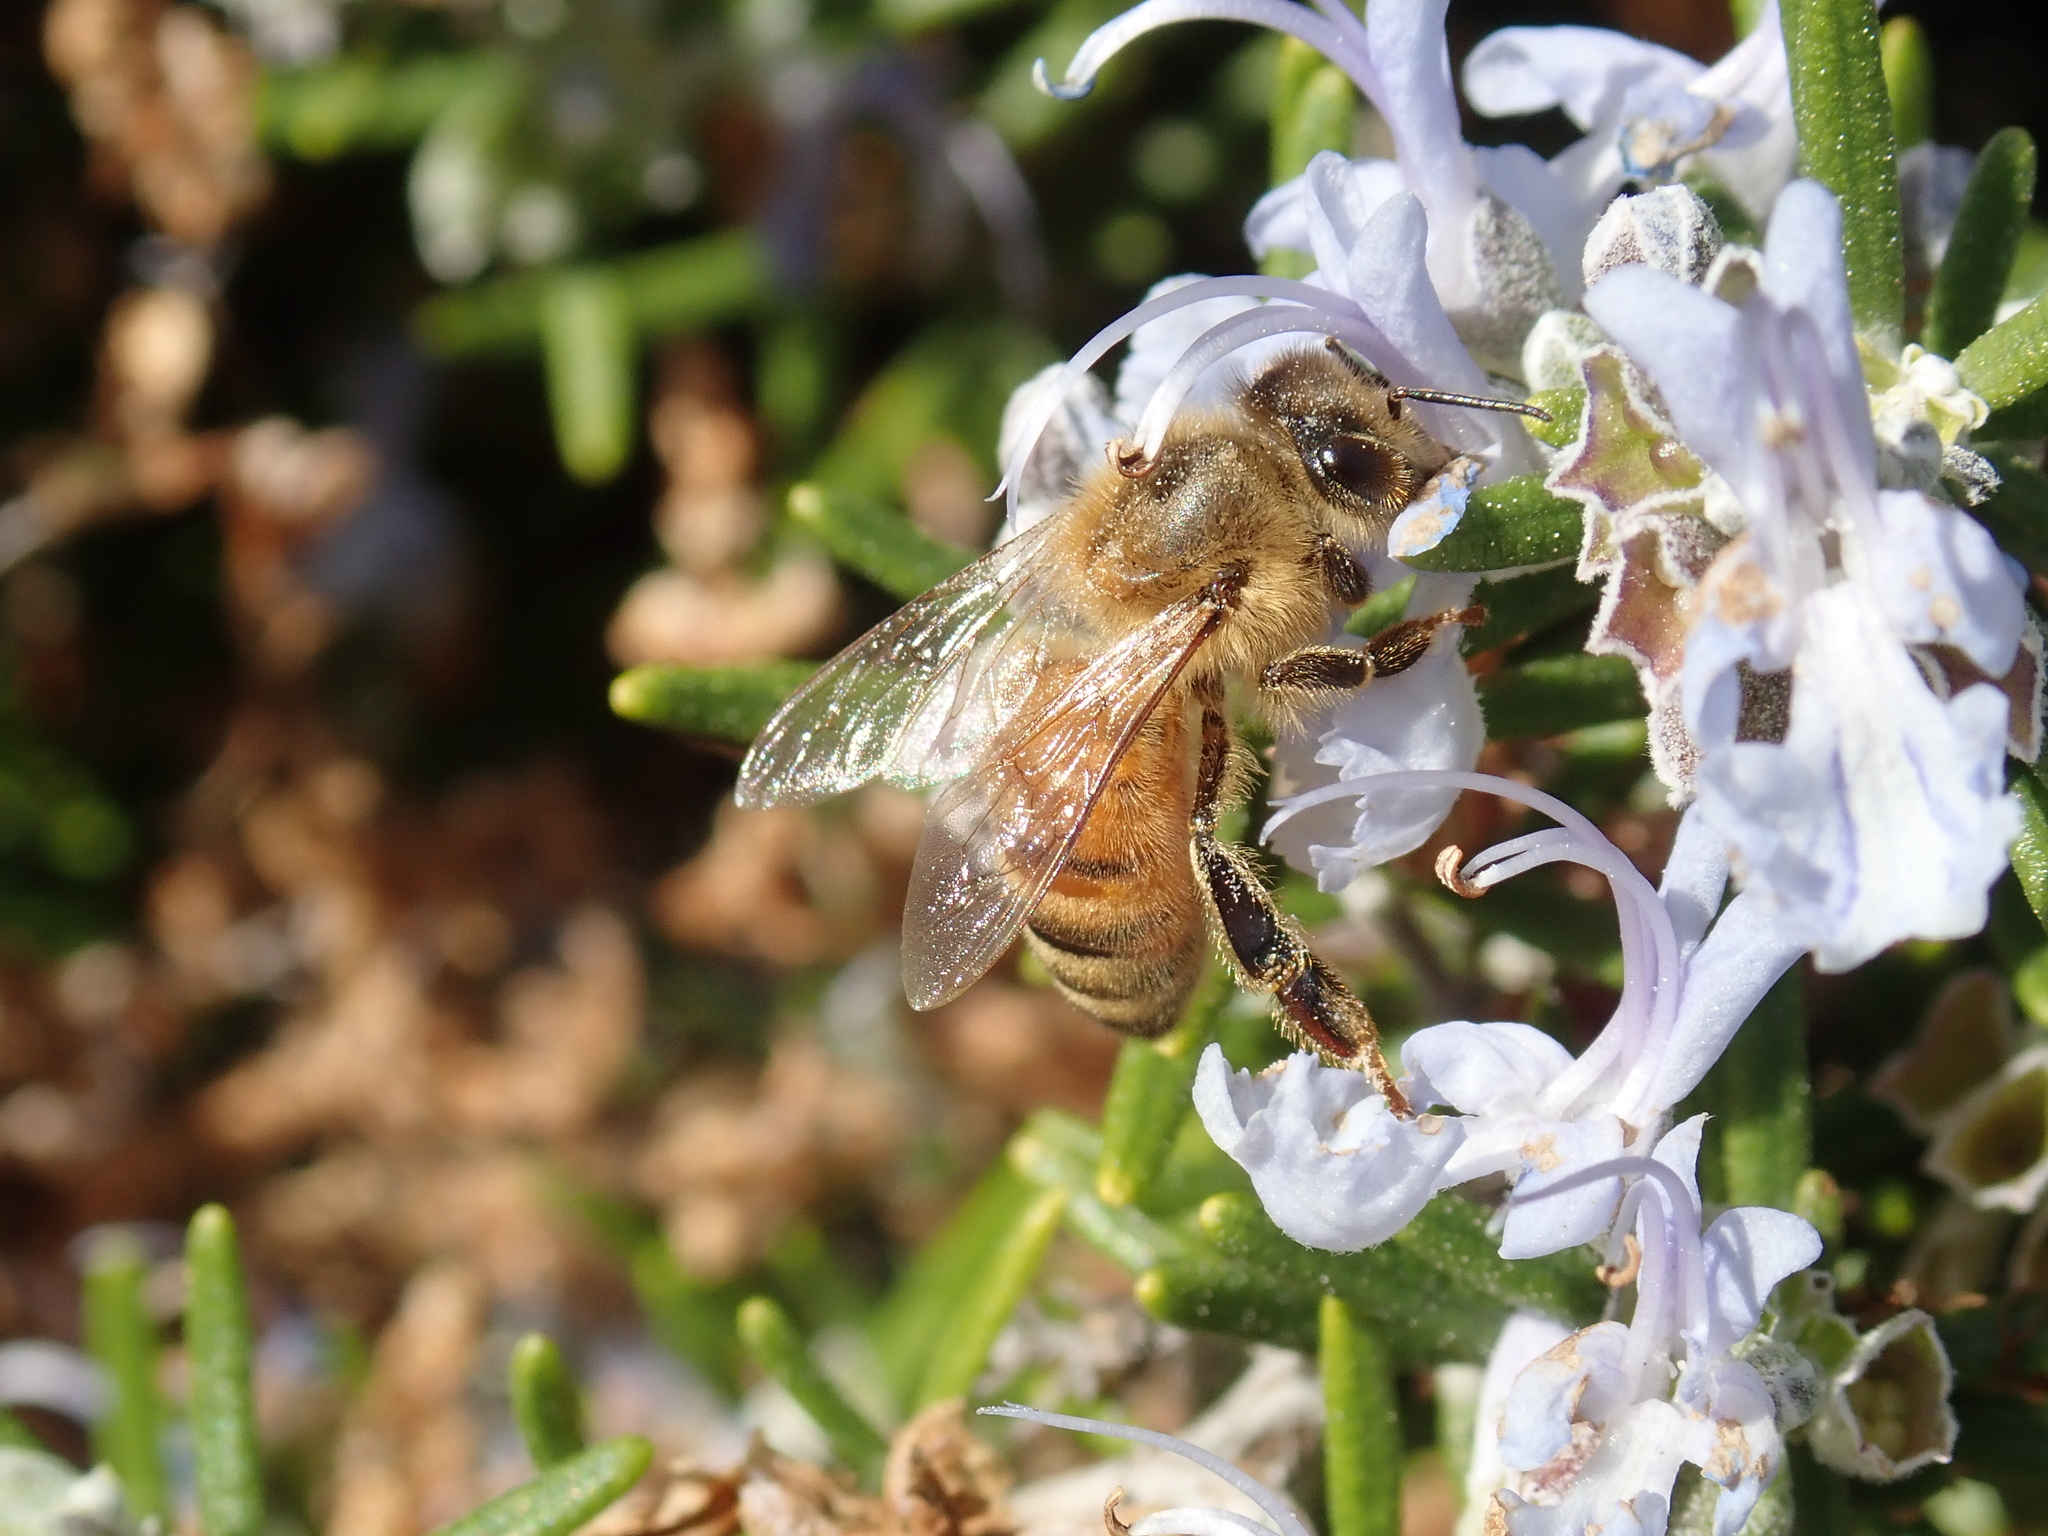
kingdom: Animalia
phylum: Arthropoda
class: Insecta
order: Hymenoptera
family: Apidae
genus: Apis
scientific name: Apis mellifera
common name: Honey bee
